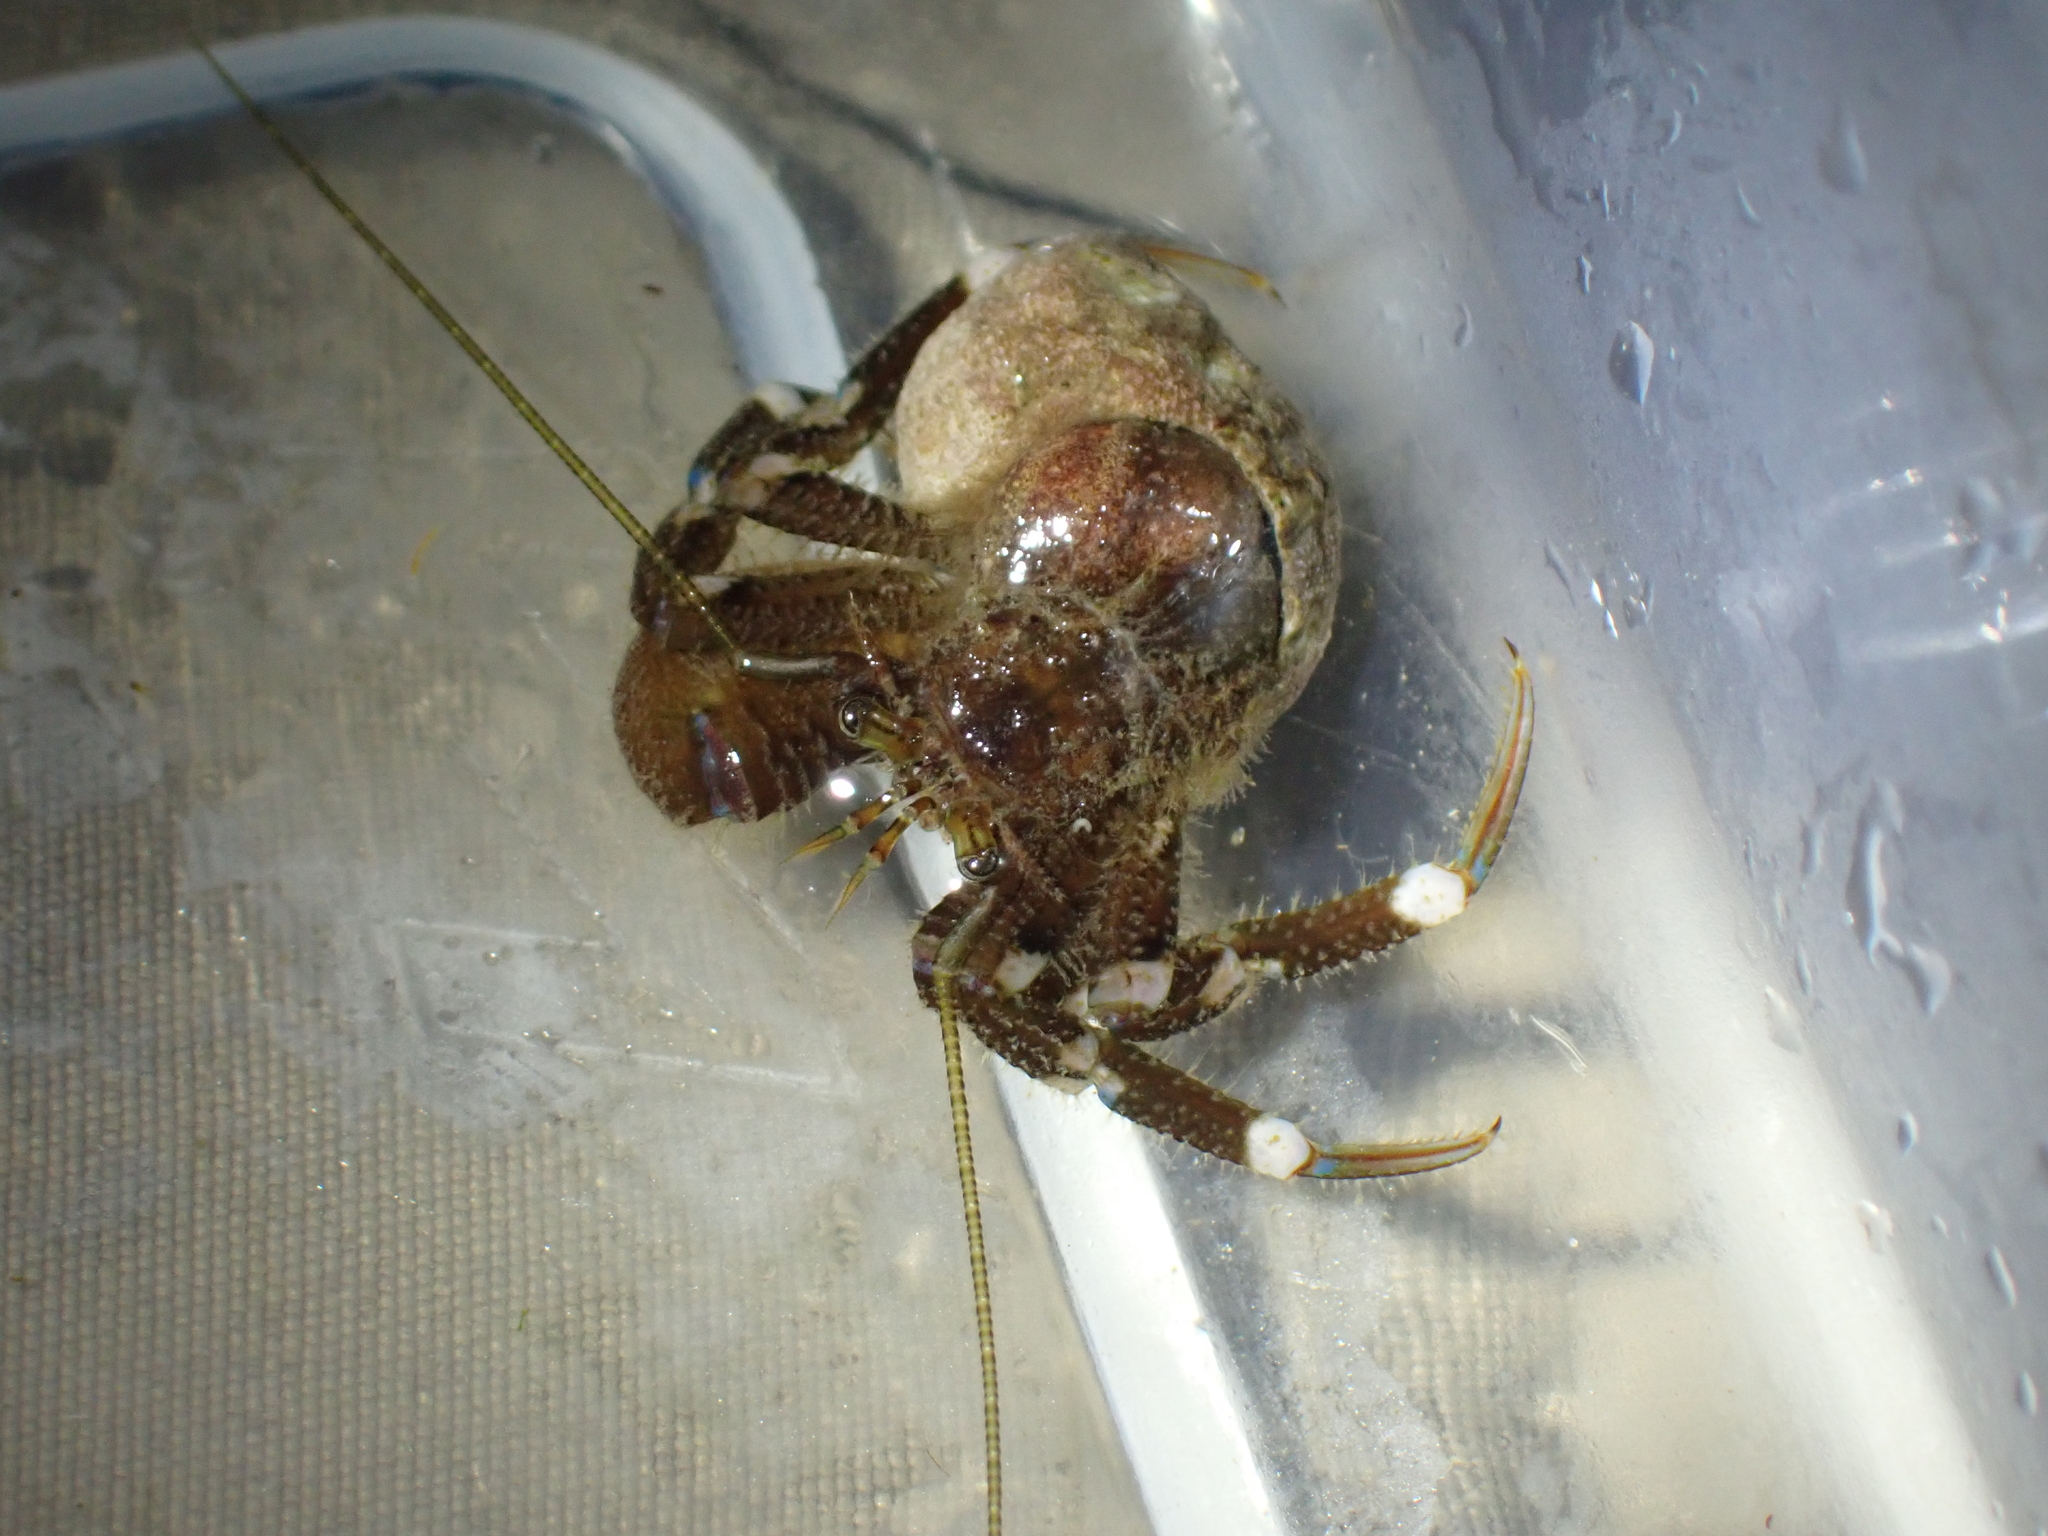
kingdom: Animalia
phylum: Arthropoda
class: Malacostraca
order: Decapoda
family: Paguridae
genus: Pagurus
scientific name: Pagurus hirsutiusculus
